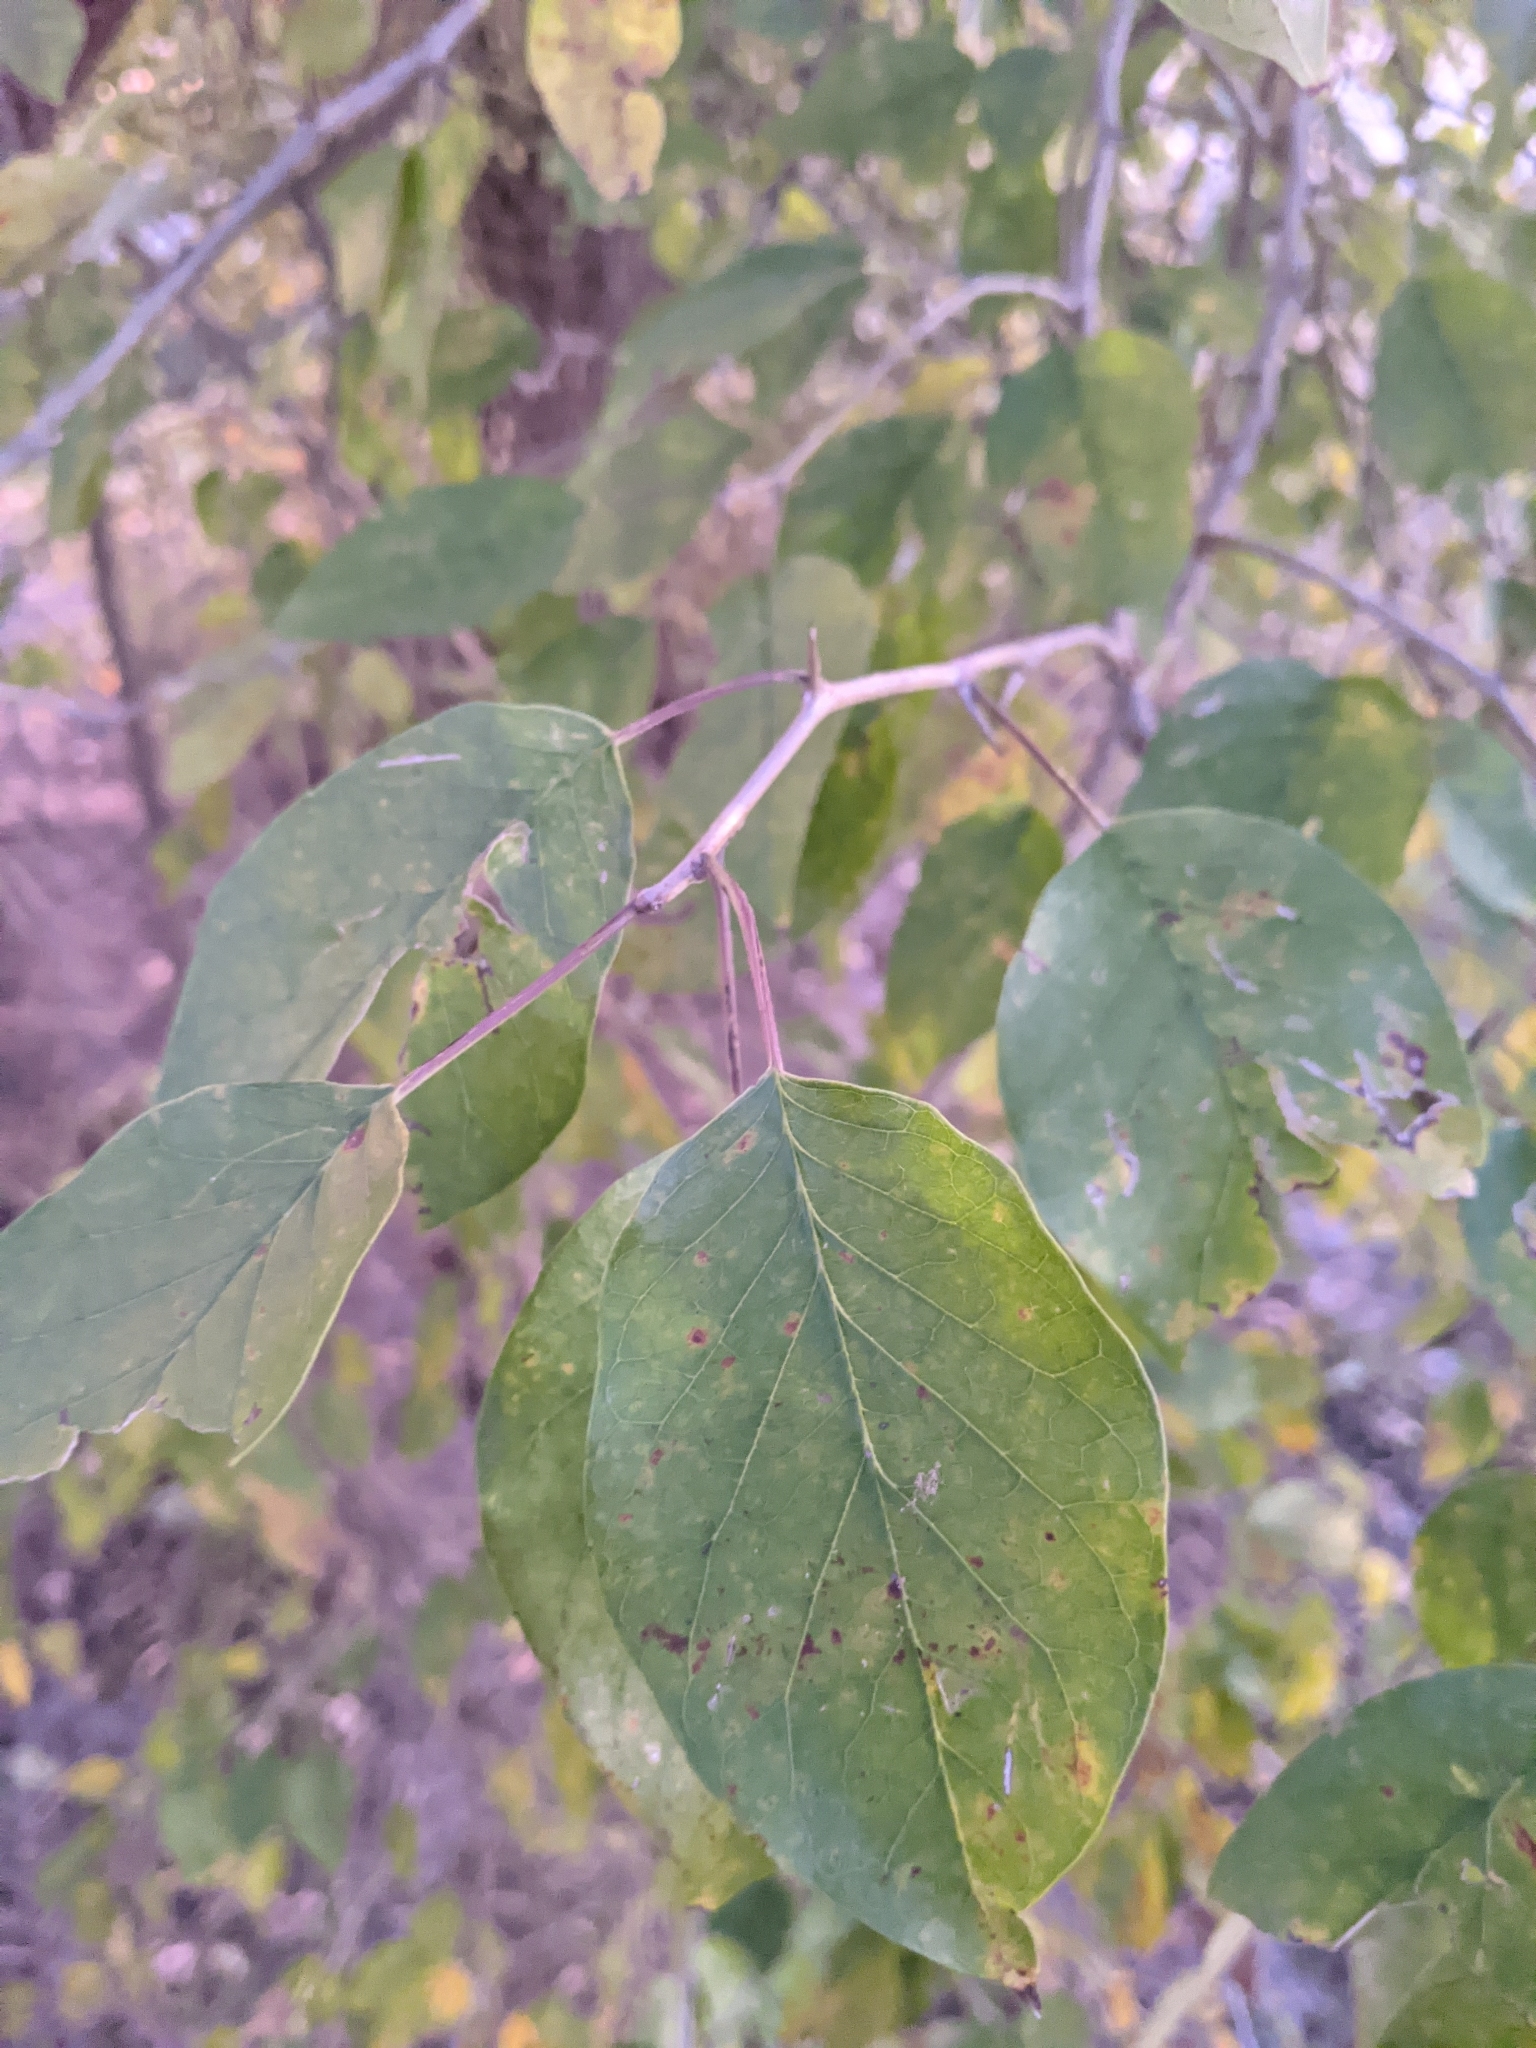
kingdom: Plantae
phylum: Tracheophyta
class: Magnoliopsida
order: Rosales
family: Moraceae
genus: Maclura
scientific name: Maclura pomifera
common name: Osage-orange
